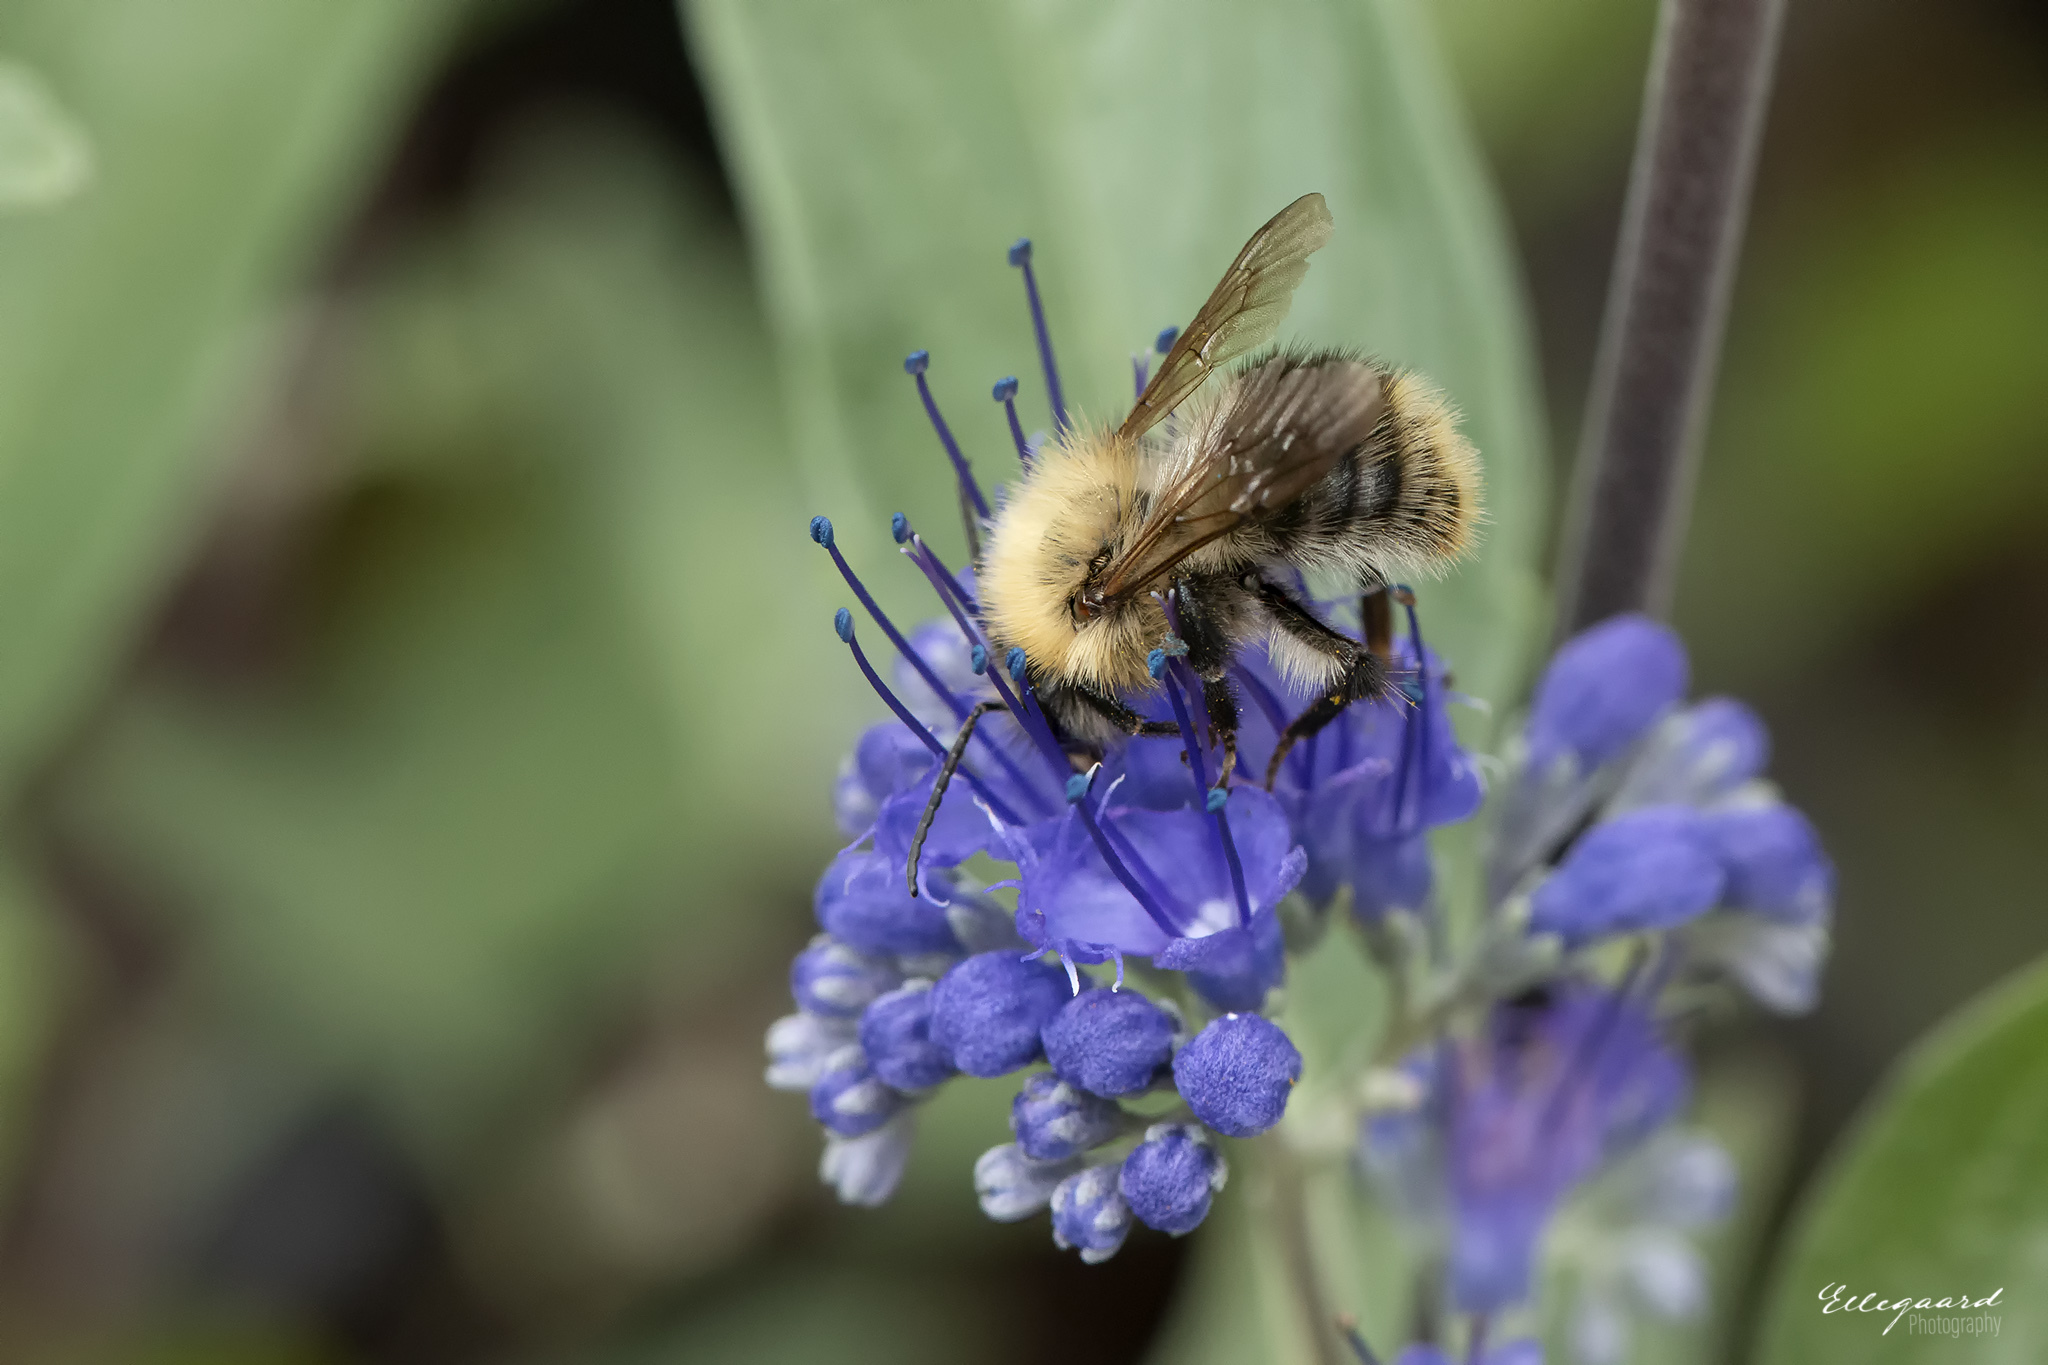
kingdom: Animalia
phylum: Arthropoda
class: Insecta
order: Hymenoptera
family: Apidae
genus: Bombus
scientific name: Bombus pascuorum
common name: Common carder bee
